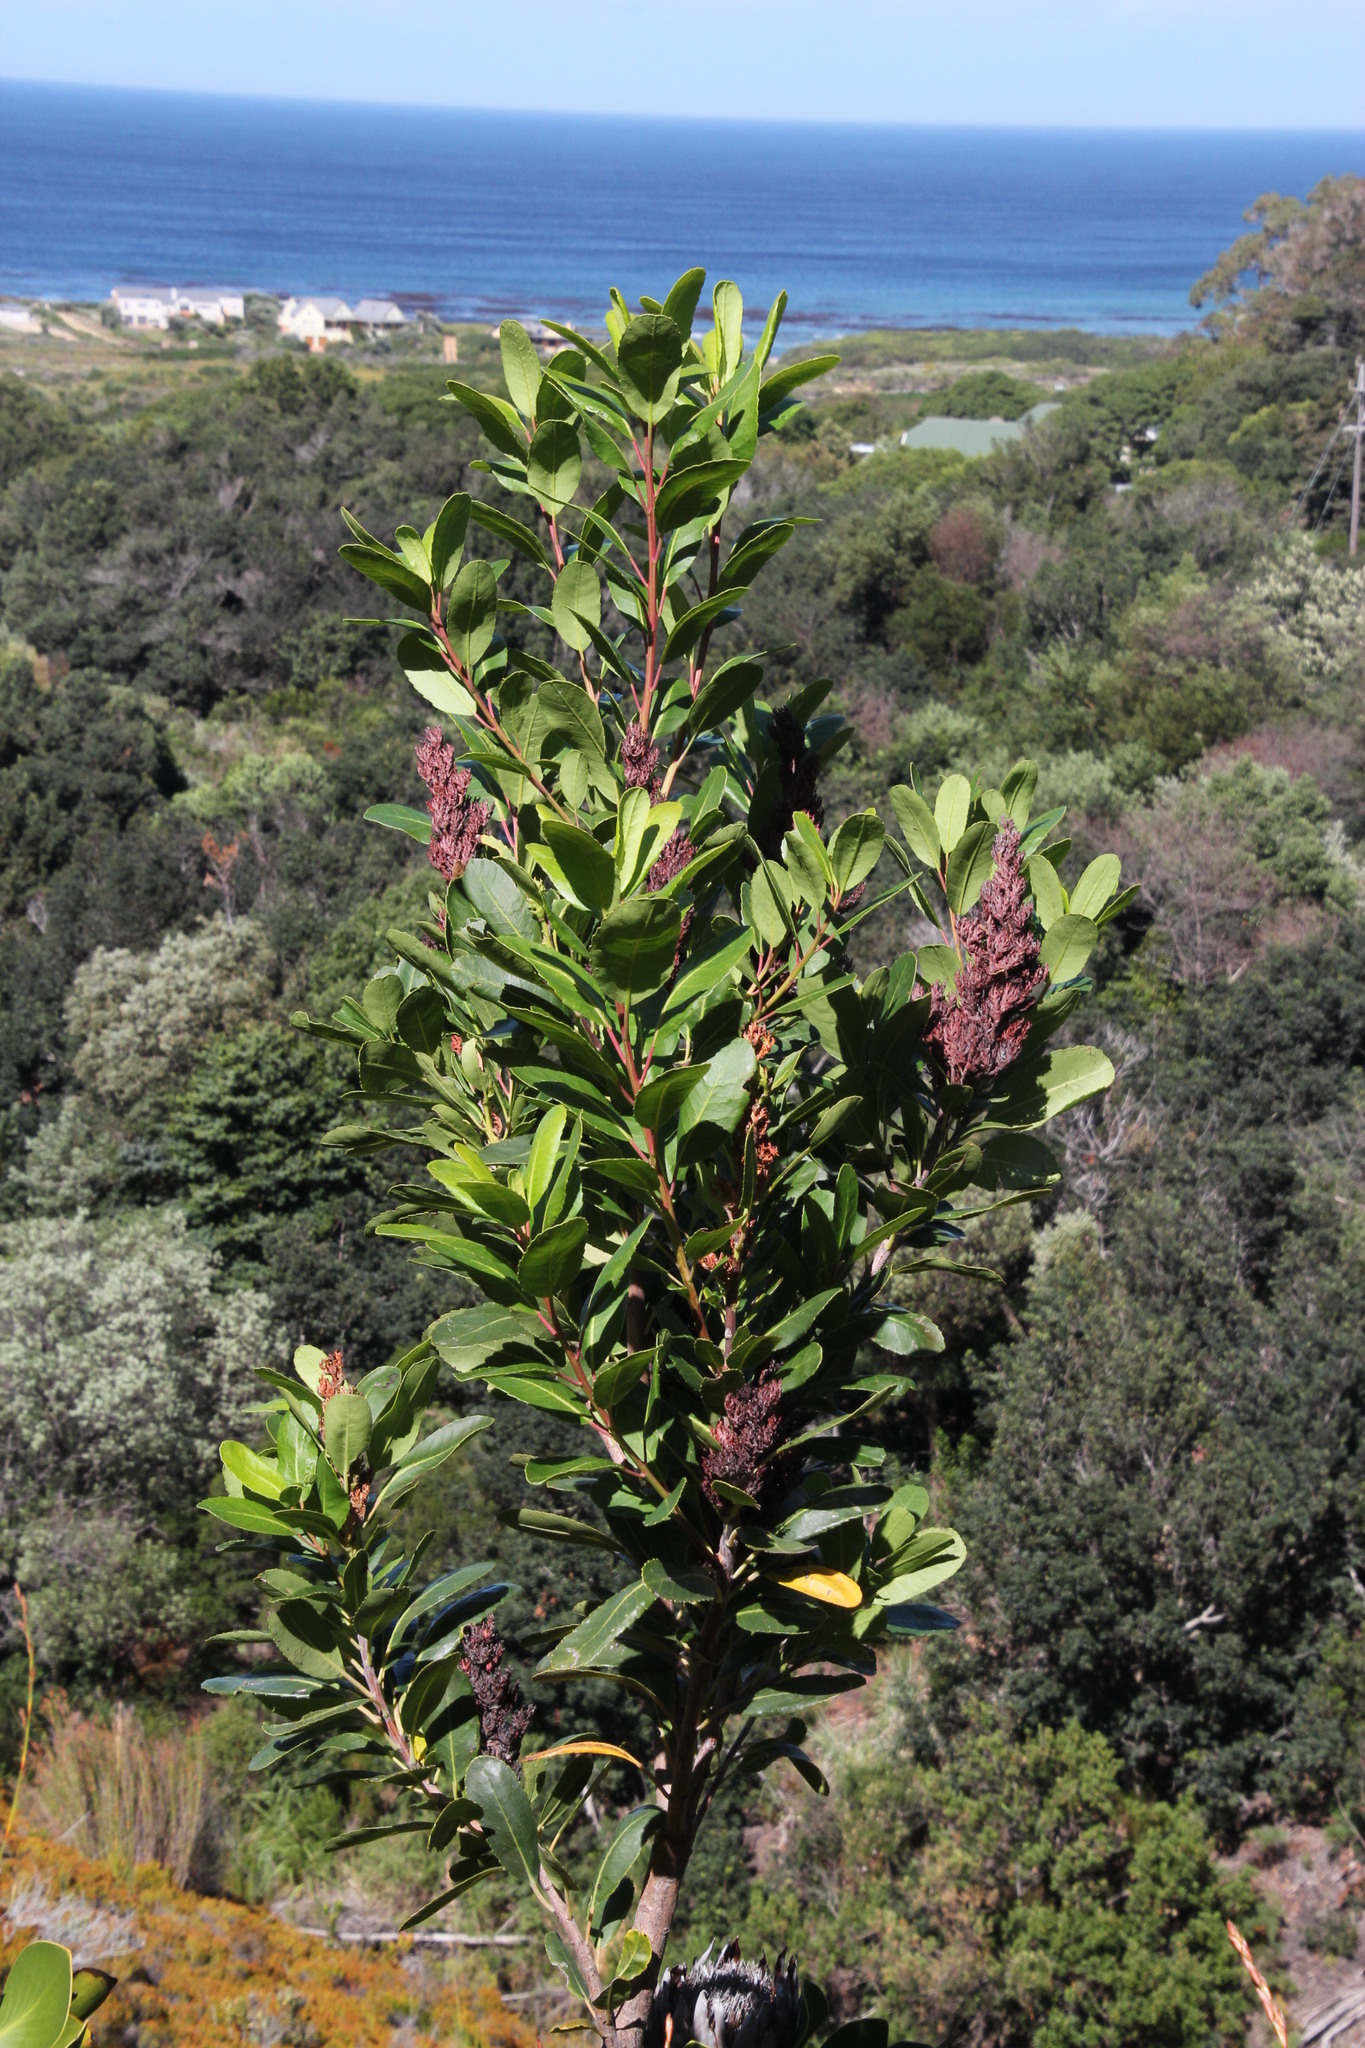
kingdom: Plantae
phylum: Tracheophyta
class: Magnoliopsida
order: Sapindales
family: Anacardiaceae
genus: Laurophyllus
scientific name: Laurophyllus capensis
